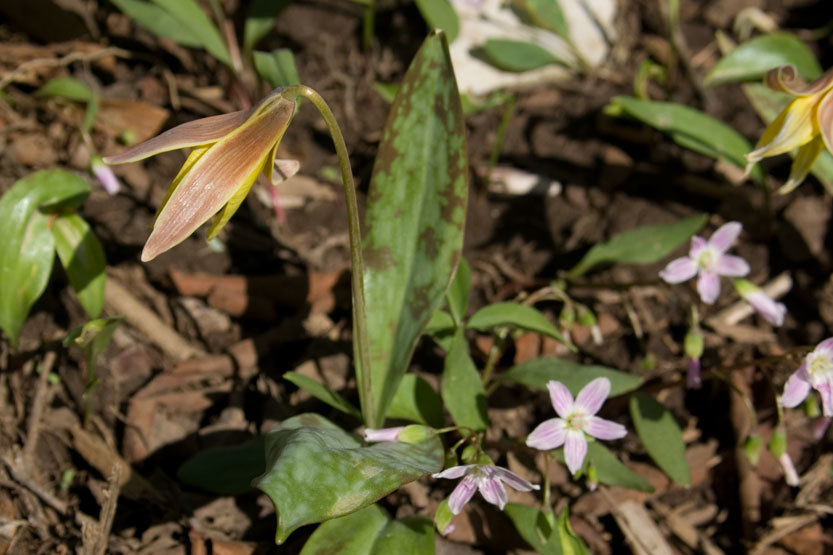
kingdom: Plantae
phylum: Tracheophyta
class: Liliopsida
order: Liliales
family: Liliaceae
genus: Erythronium
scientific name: Erythronium americanum
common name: Yellow adder's-tongue
